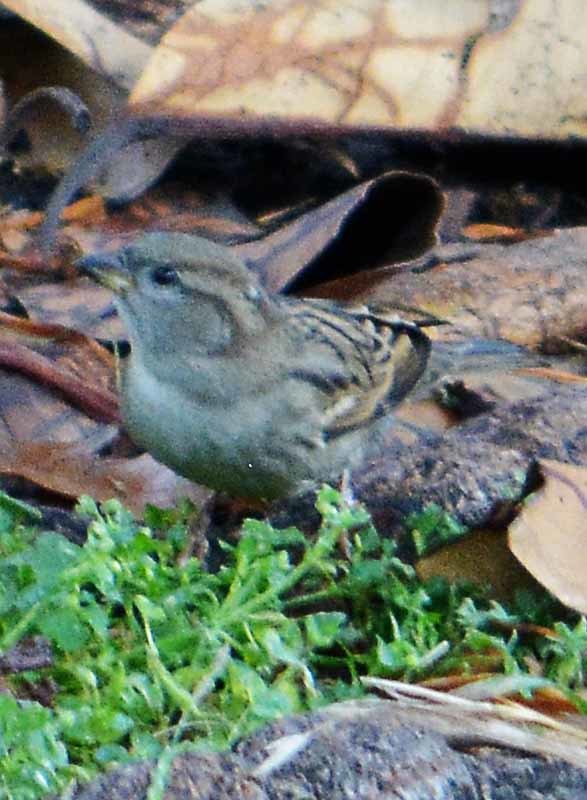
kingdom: Animalia
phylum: Chordata
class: Aves
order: Passeriformes
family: Passeridae
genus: Passer
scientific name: Passer domesticus
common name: House sparrow
